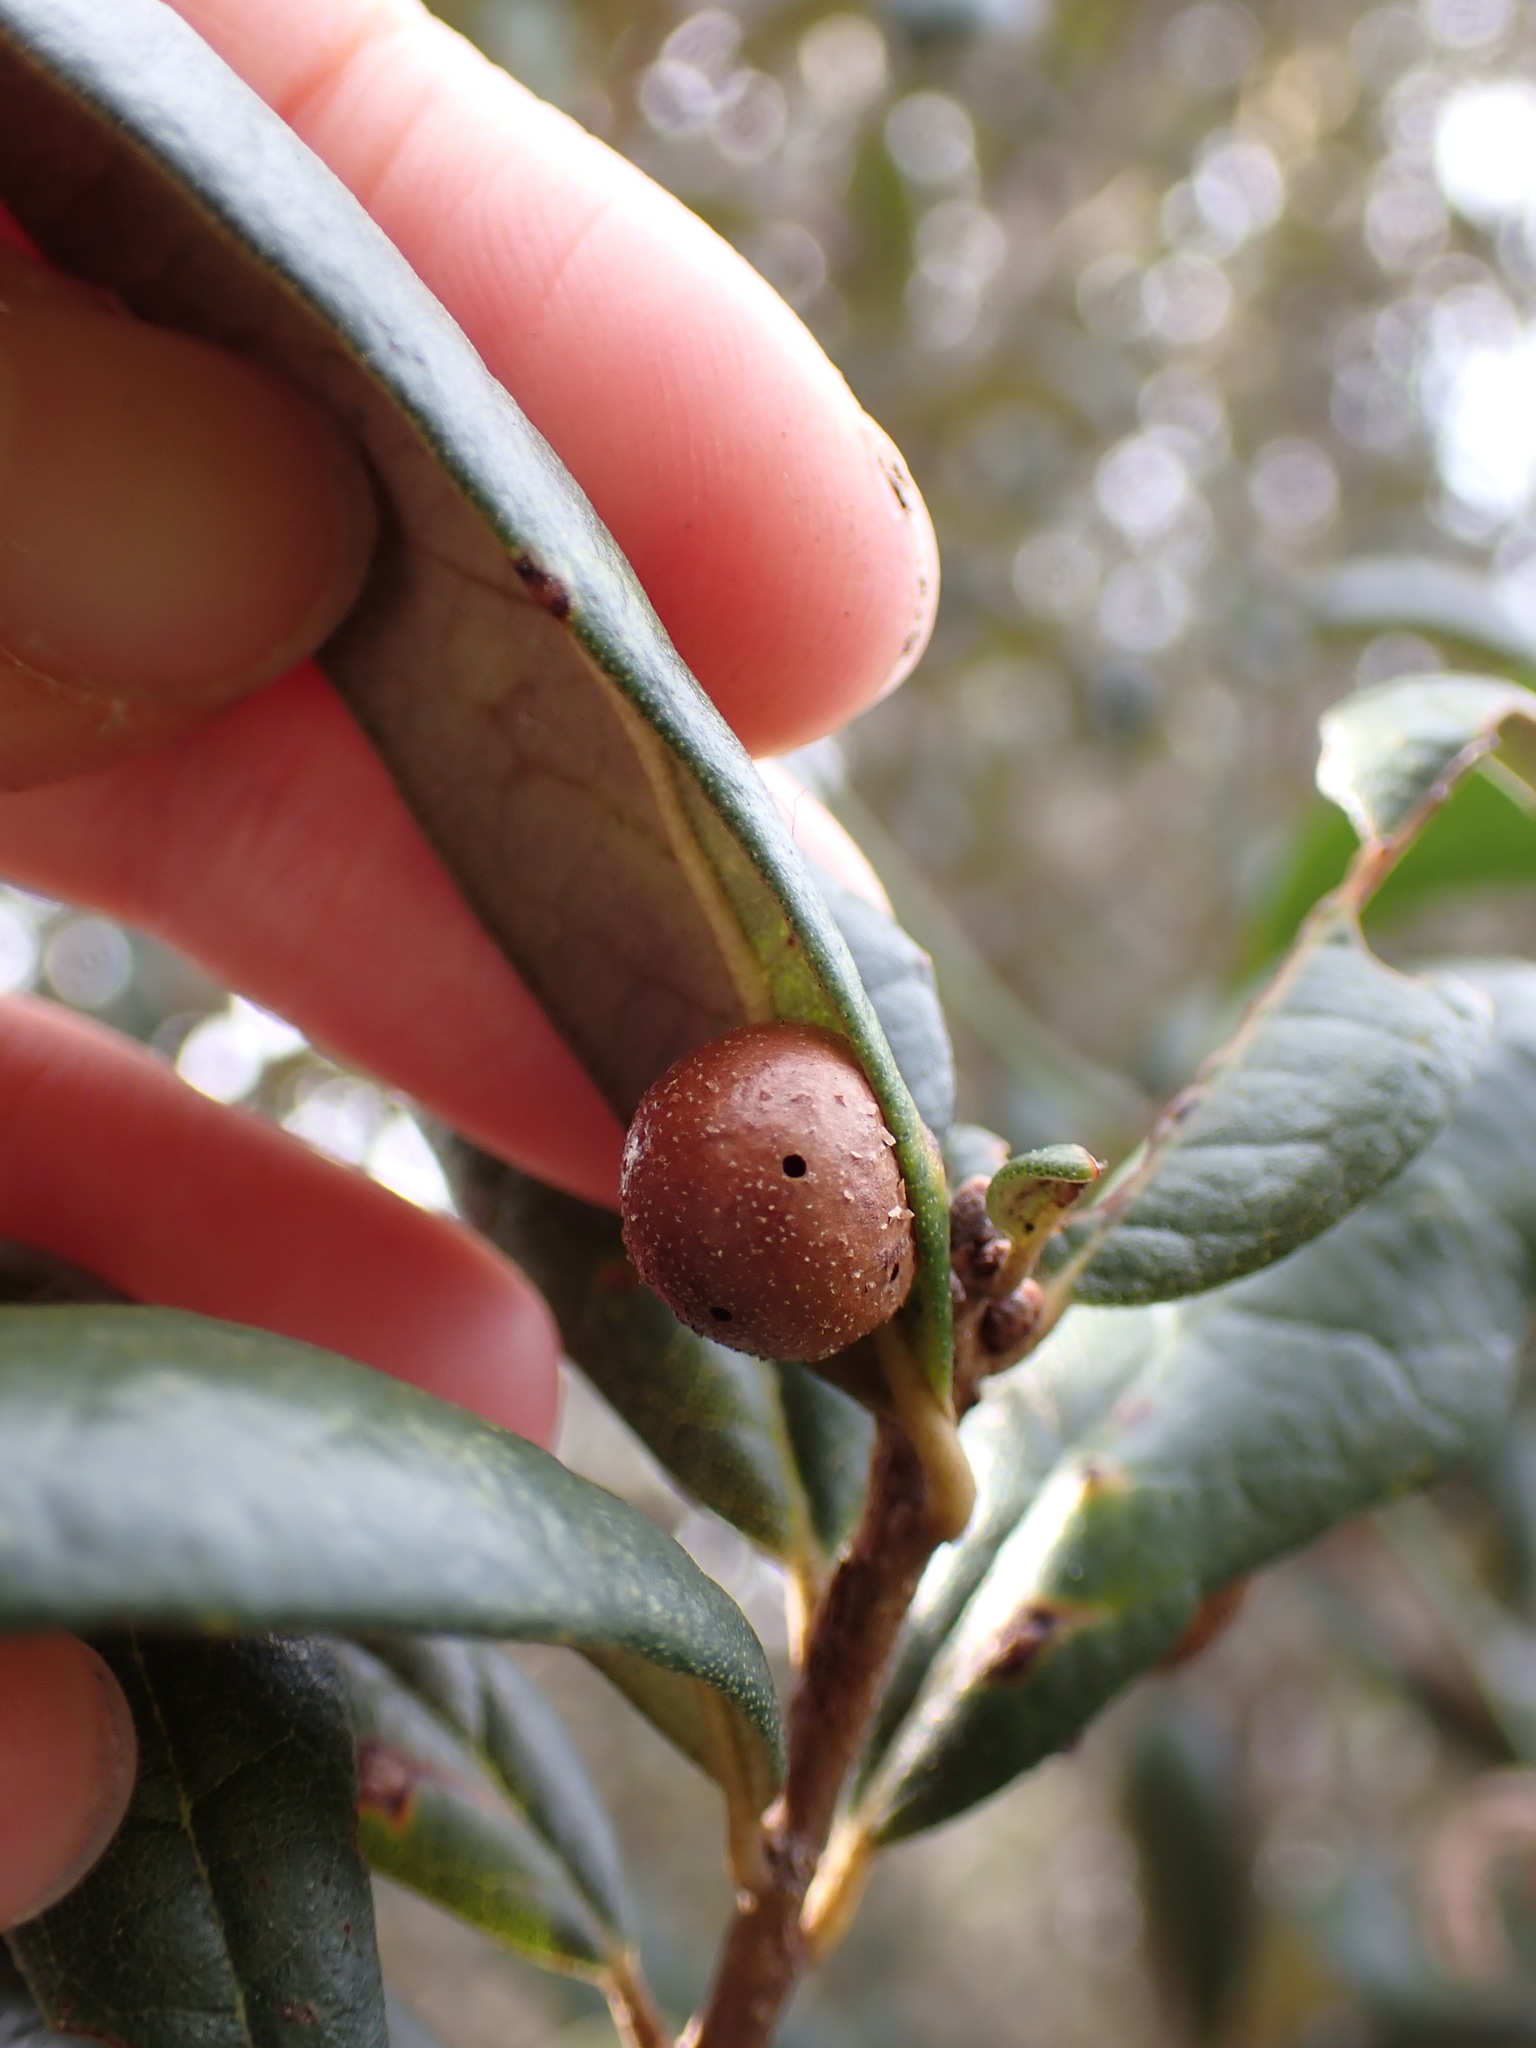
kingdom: Animalia
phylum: Arthropoda
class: Insecta
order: Hymenoptera
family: Cynipidae
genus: Belonocnema
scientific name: Belonocnema fossoria
